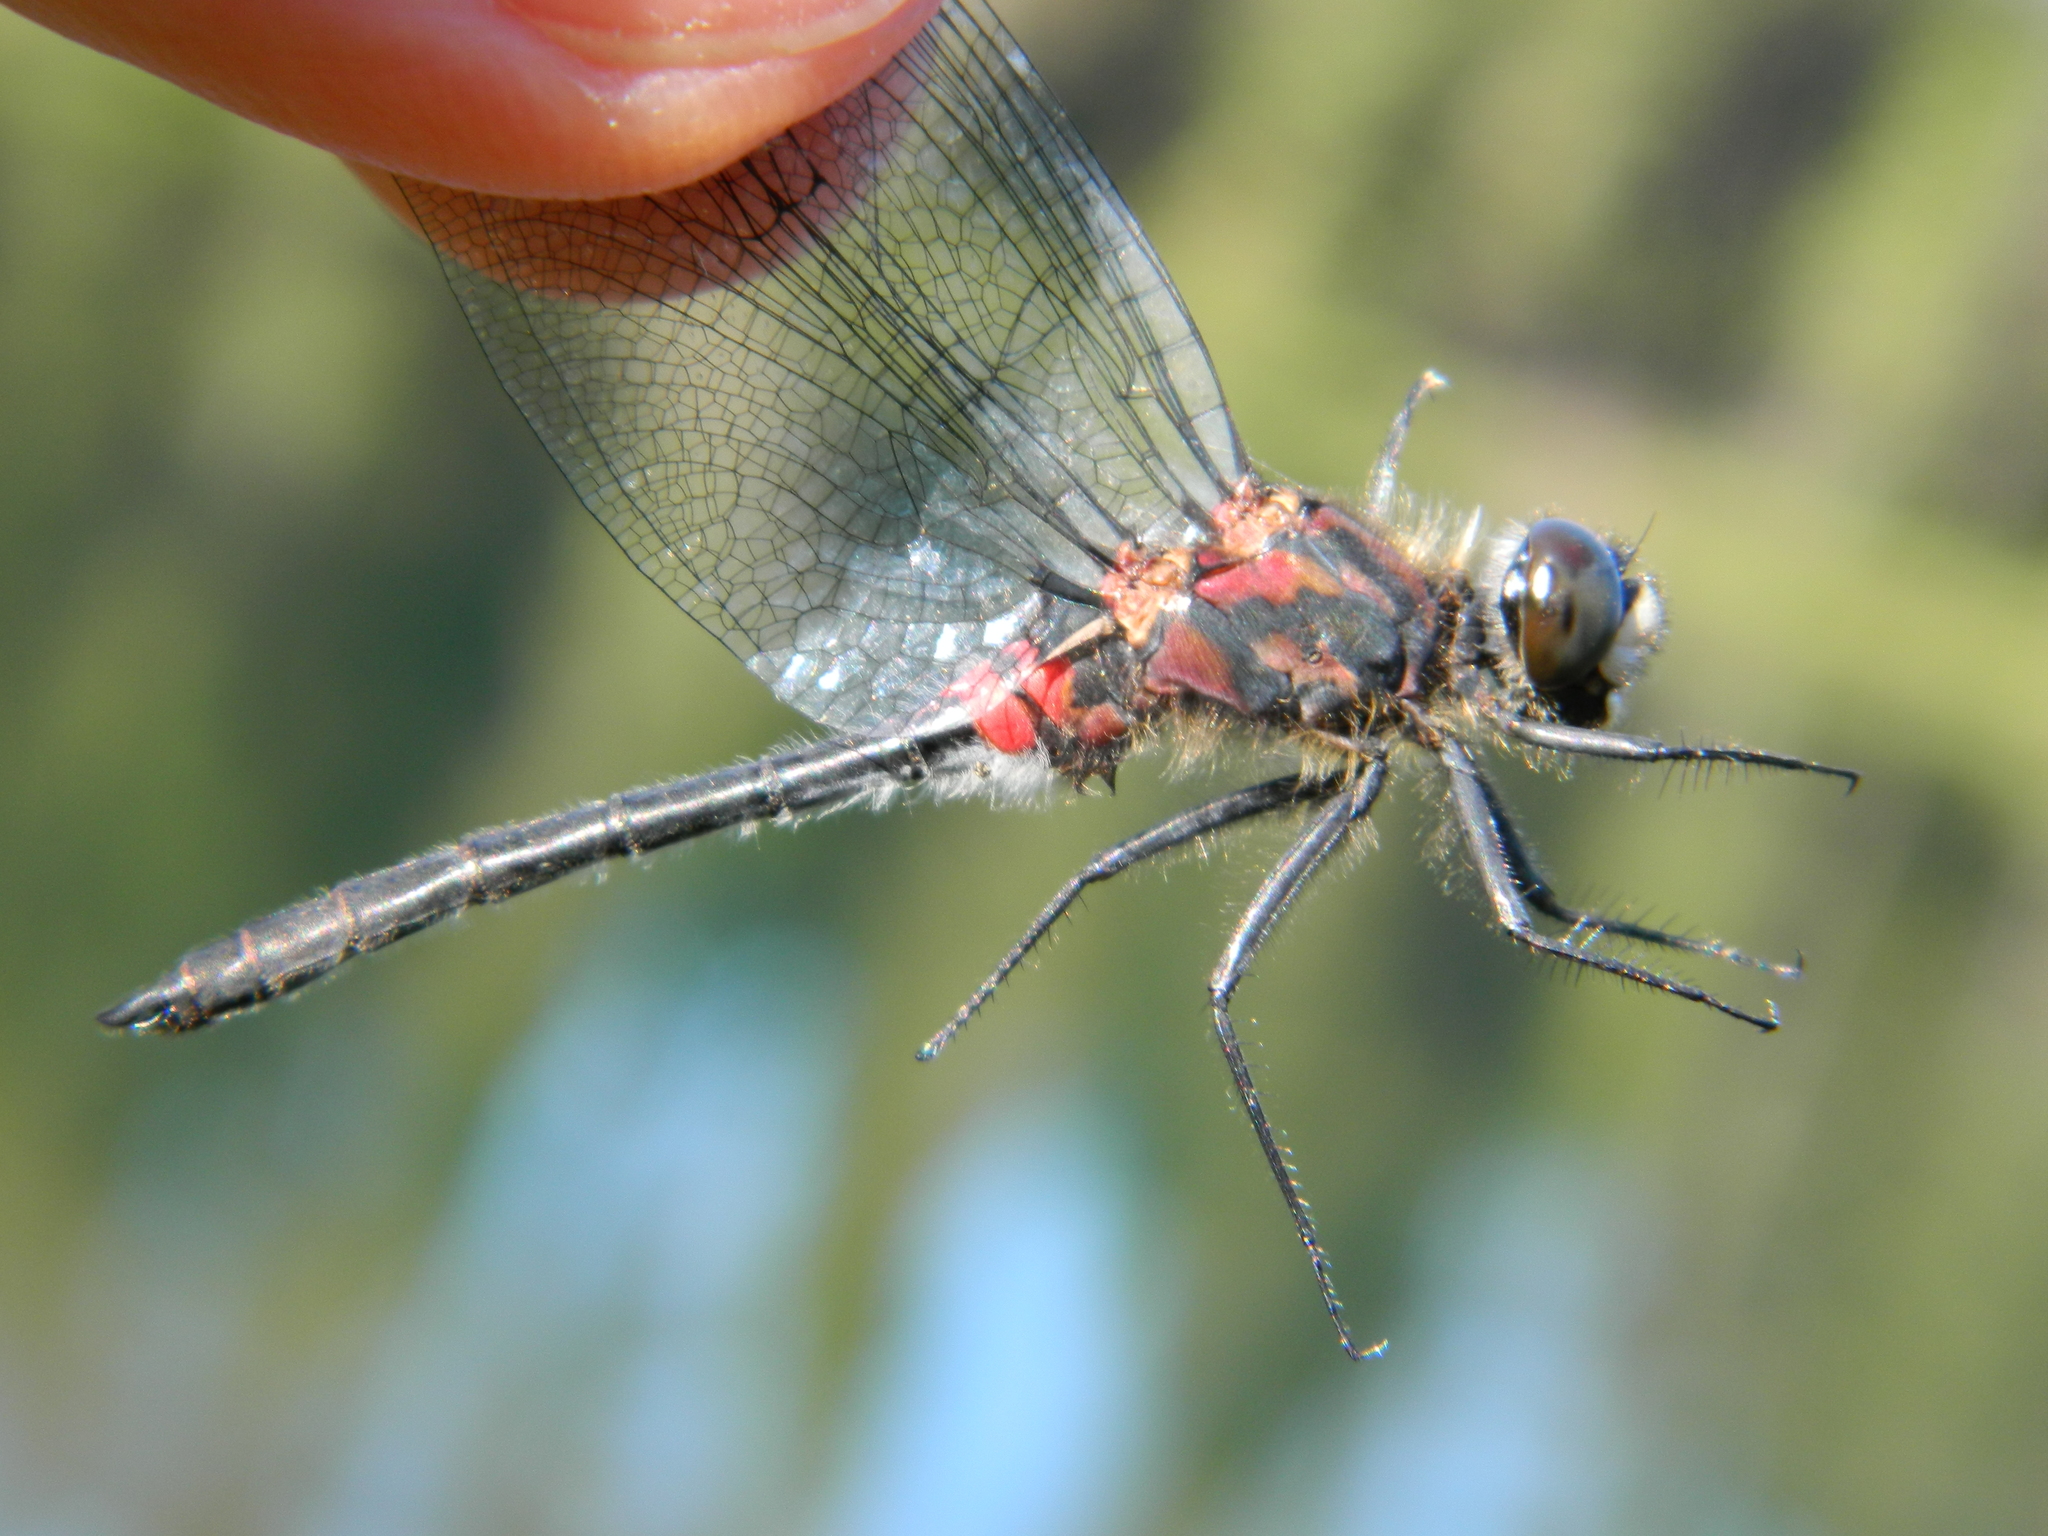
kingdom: Animalia
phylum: Arthropoda
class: Insecta
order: Odonata
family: Libellulidae
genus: Leucorrhinia
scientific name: Leucorrhinia glacialis
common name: Crimson-ringed whiteface
